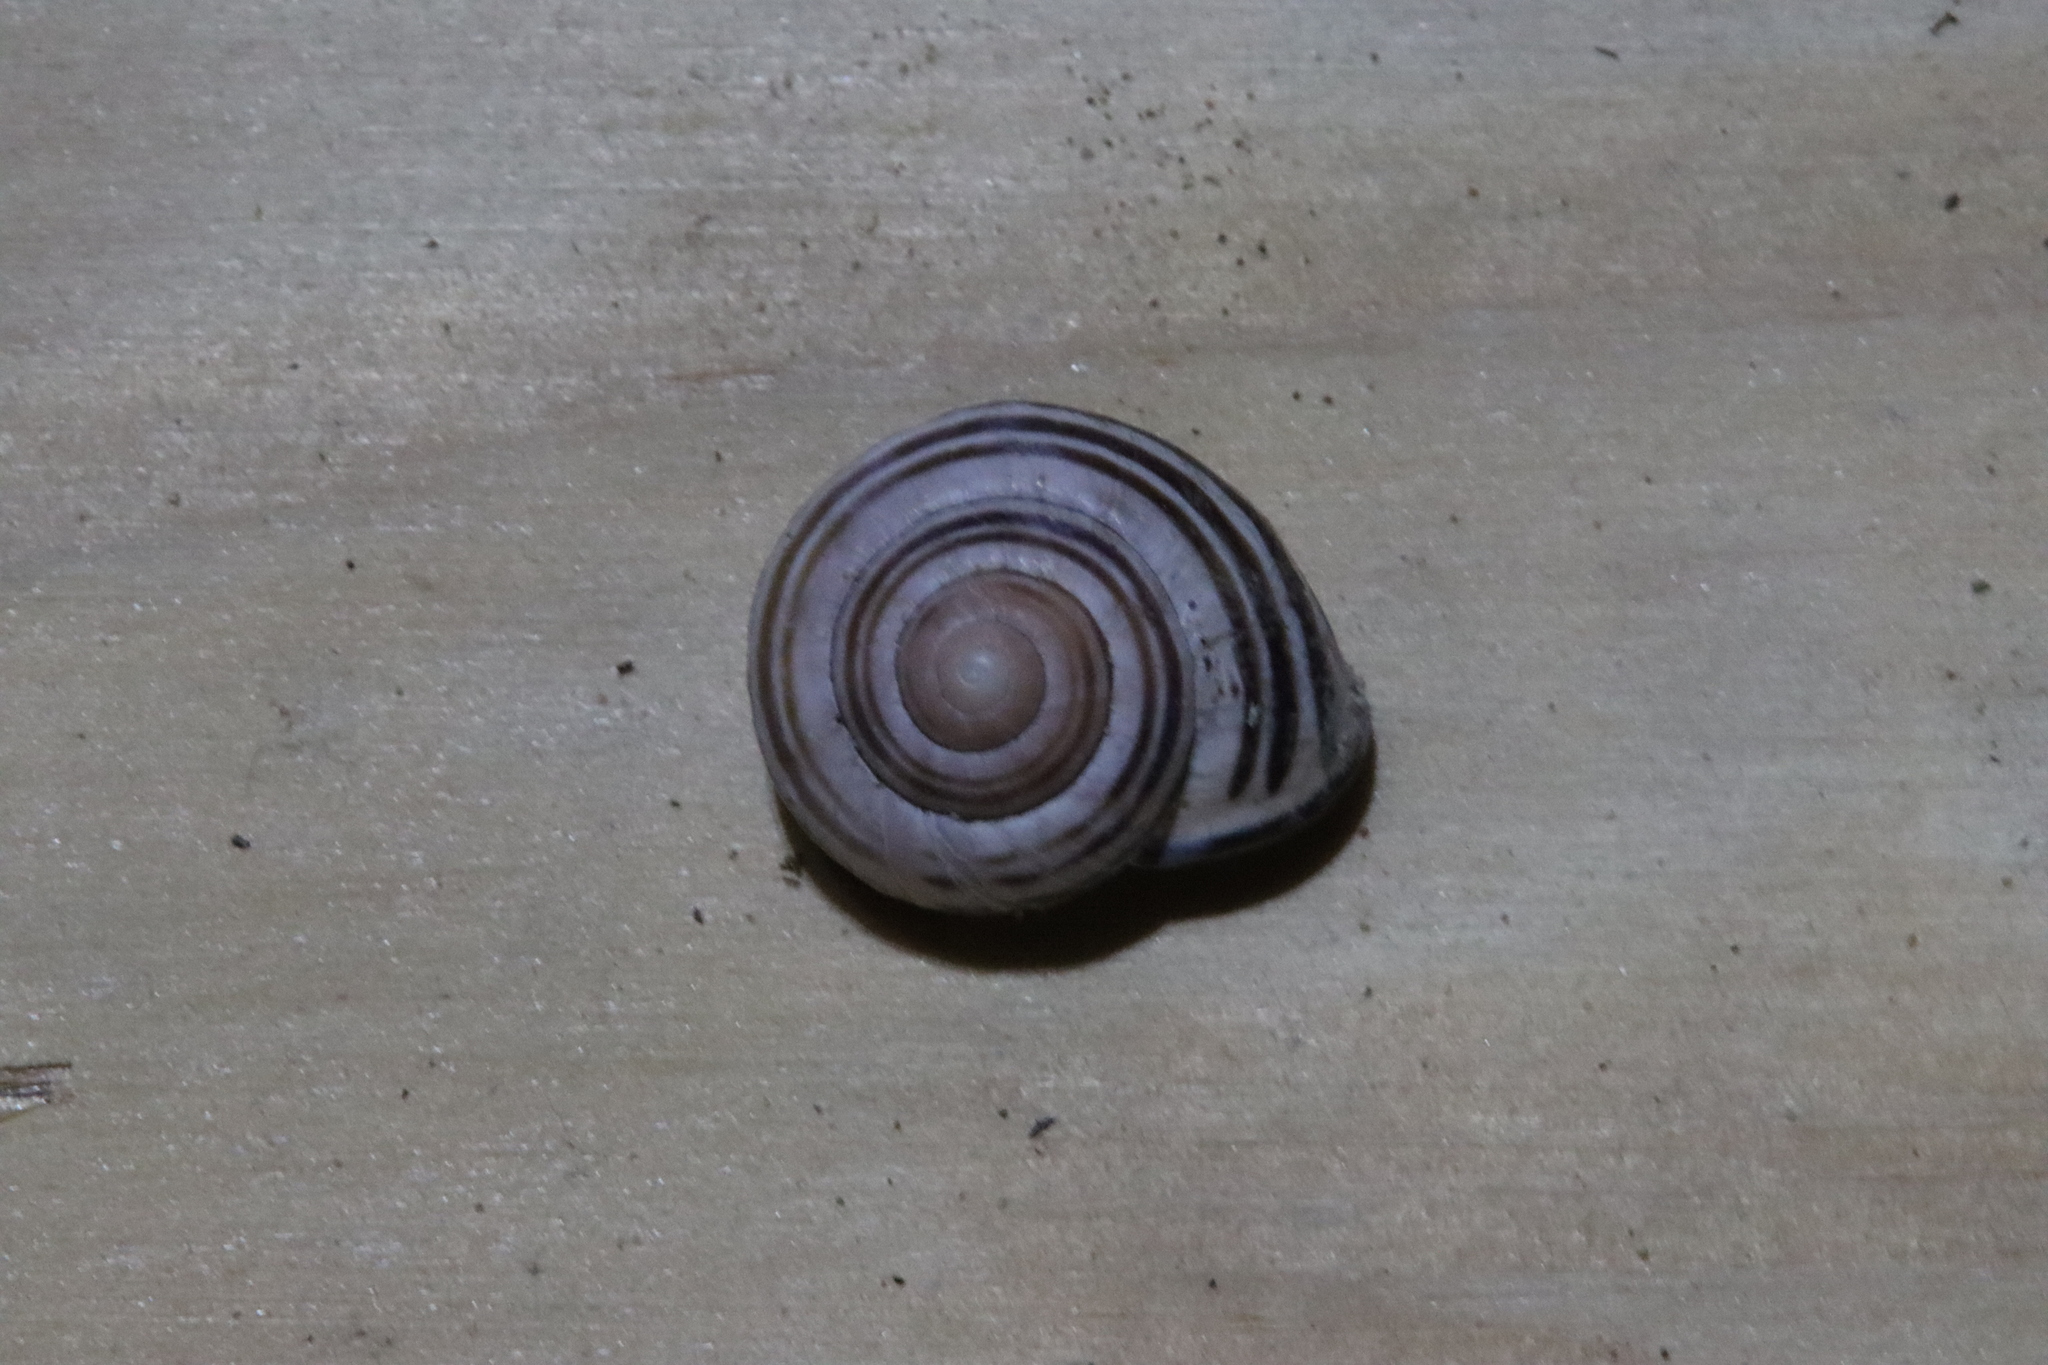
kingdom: Animalia
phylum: Mollusca
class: Gastropoda
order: Stylommatophora
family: Helicidae
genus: Cepaea
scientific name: Cepaea nemoralis
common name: Grovesnail
